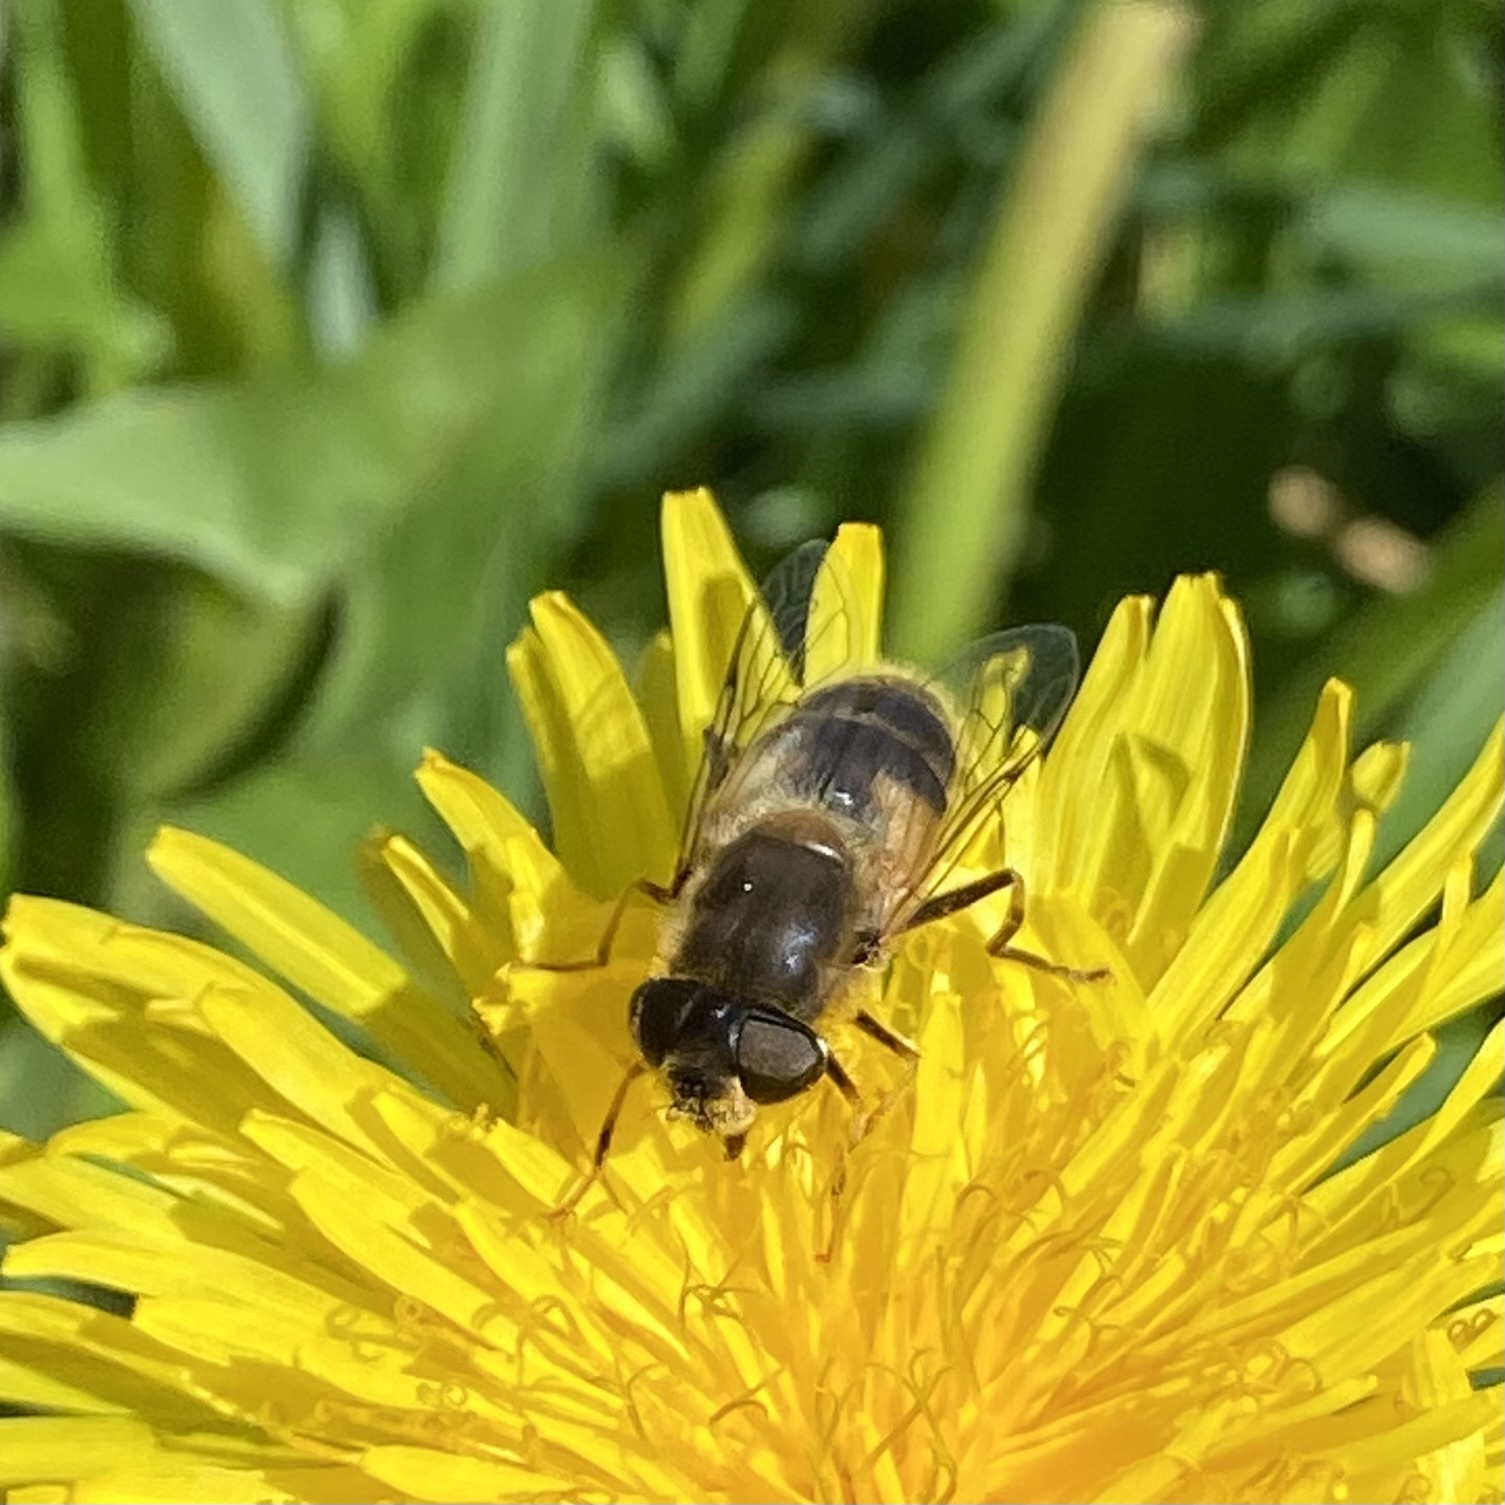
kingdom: Animalia
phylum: Arthropoda
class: Insecta
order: Diptera
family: Syrphidae
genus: Eristalis
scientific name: Eristalis pertinax
